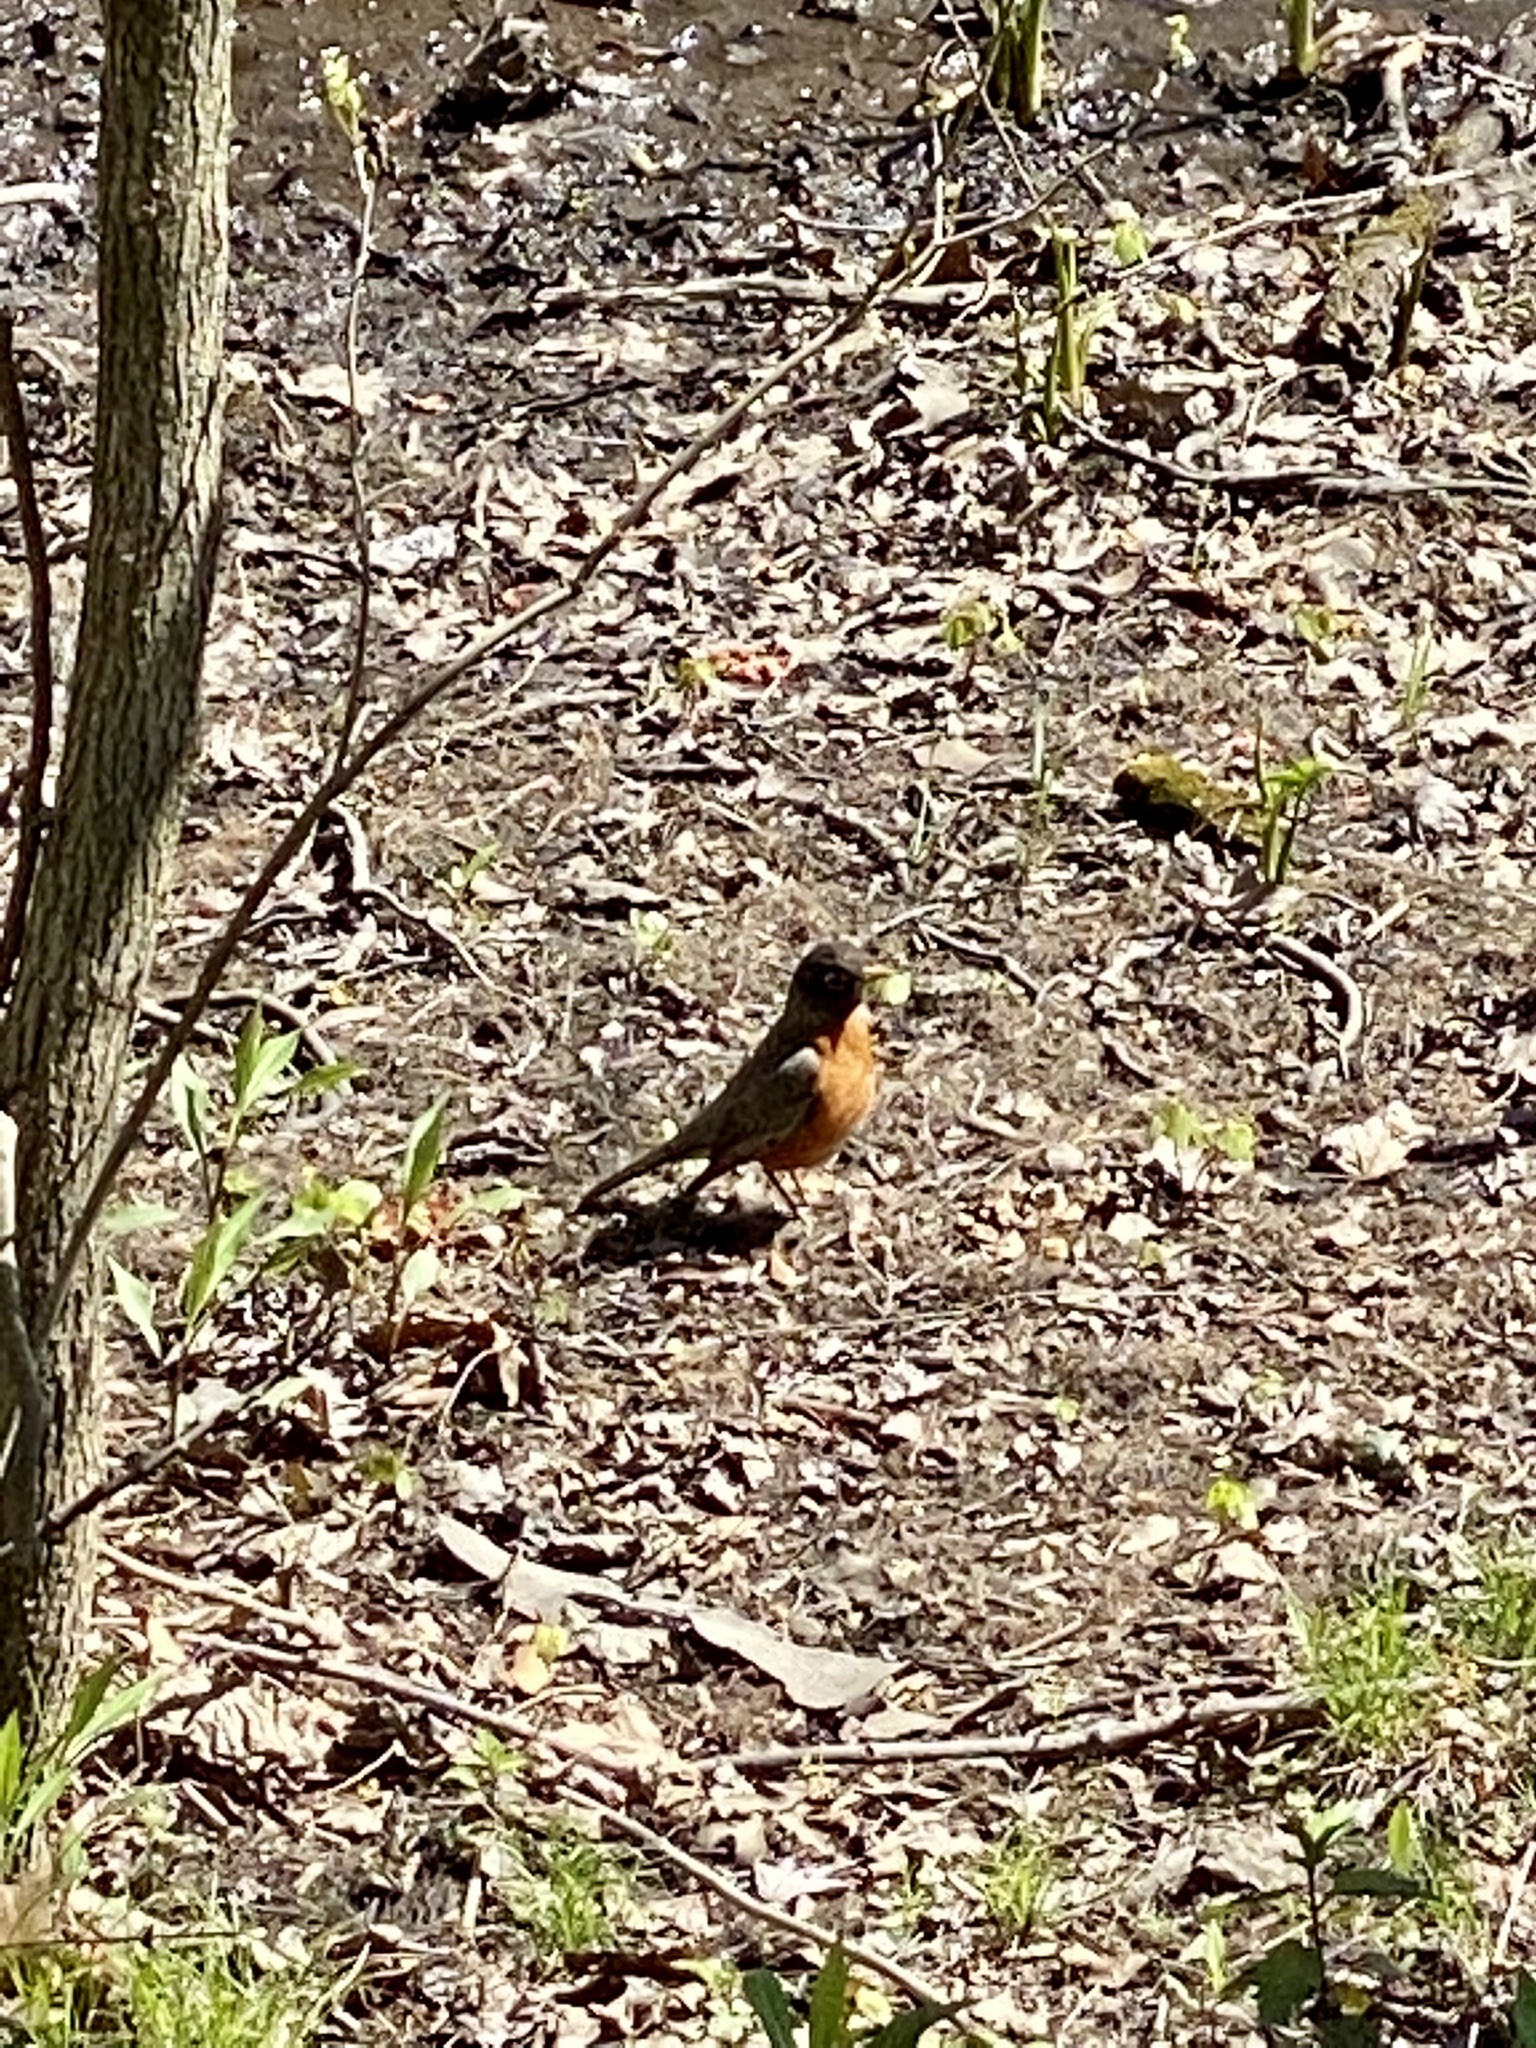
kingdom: Animalia
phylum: Chordata
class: Aves
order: Passeriformes
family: Turdidae
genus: Turdus
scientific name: Turdus migratorius
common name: American robin
